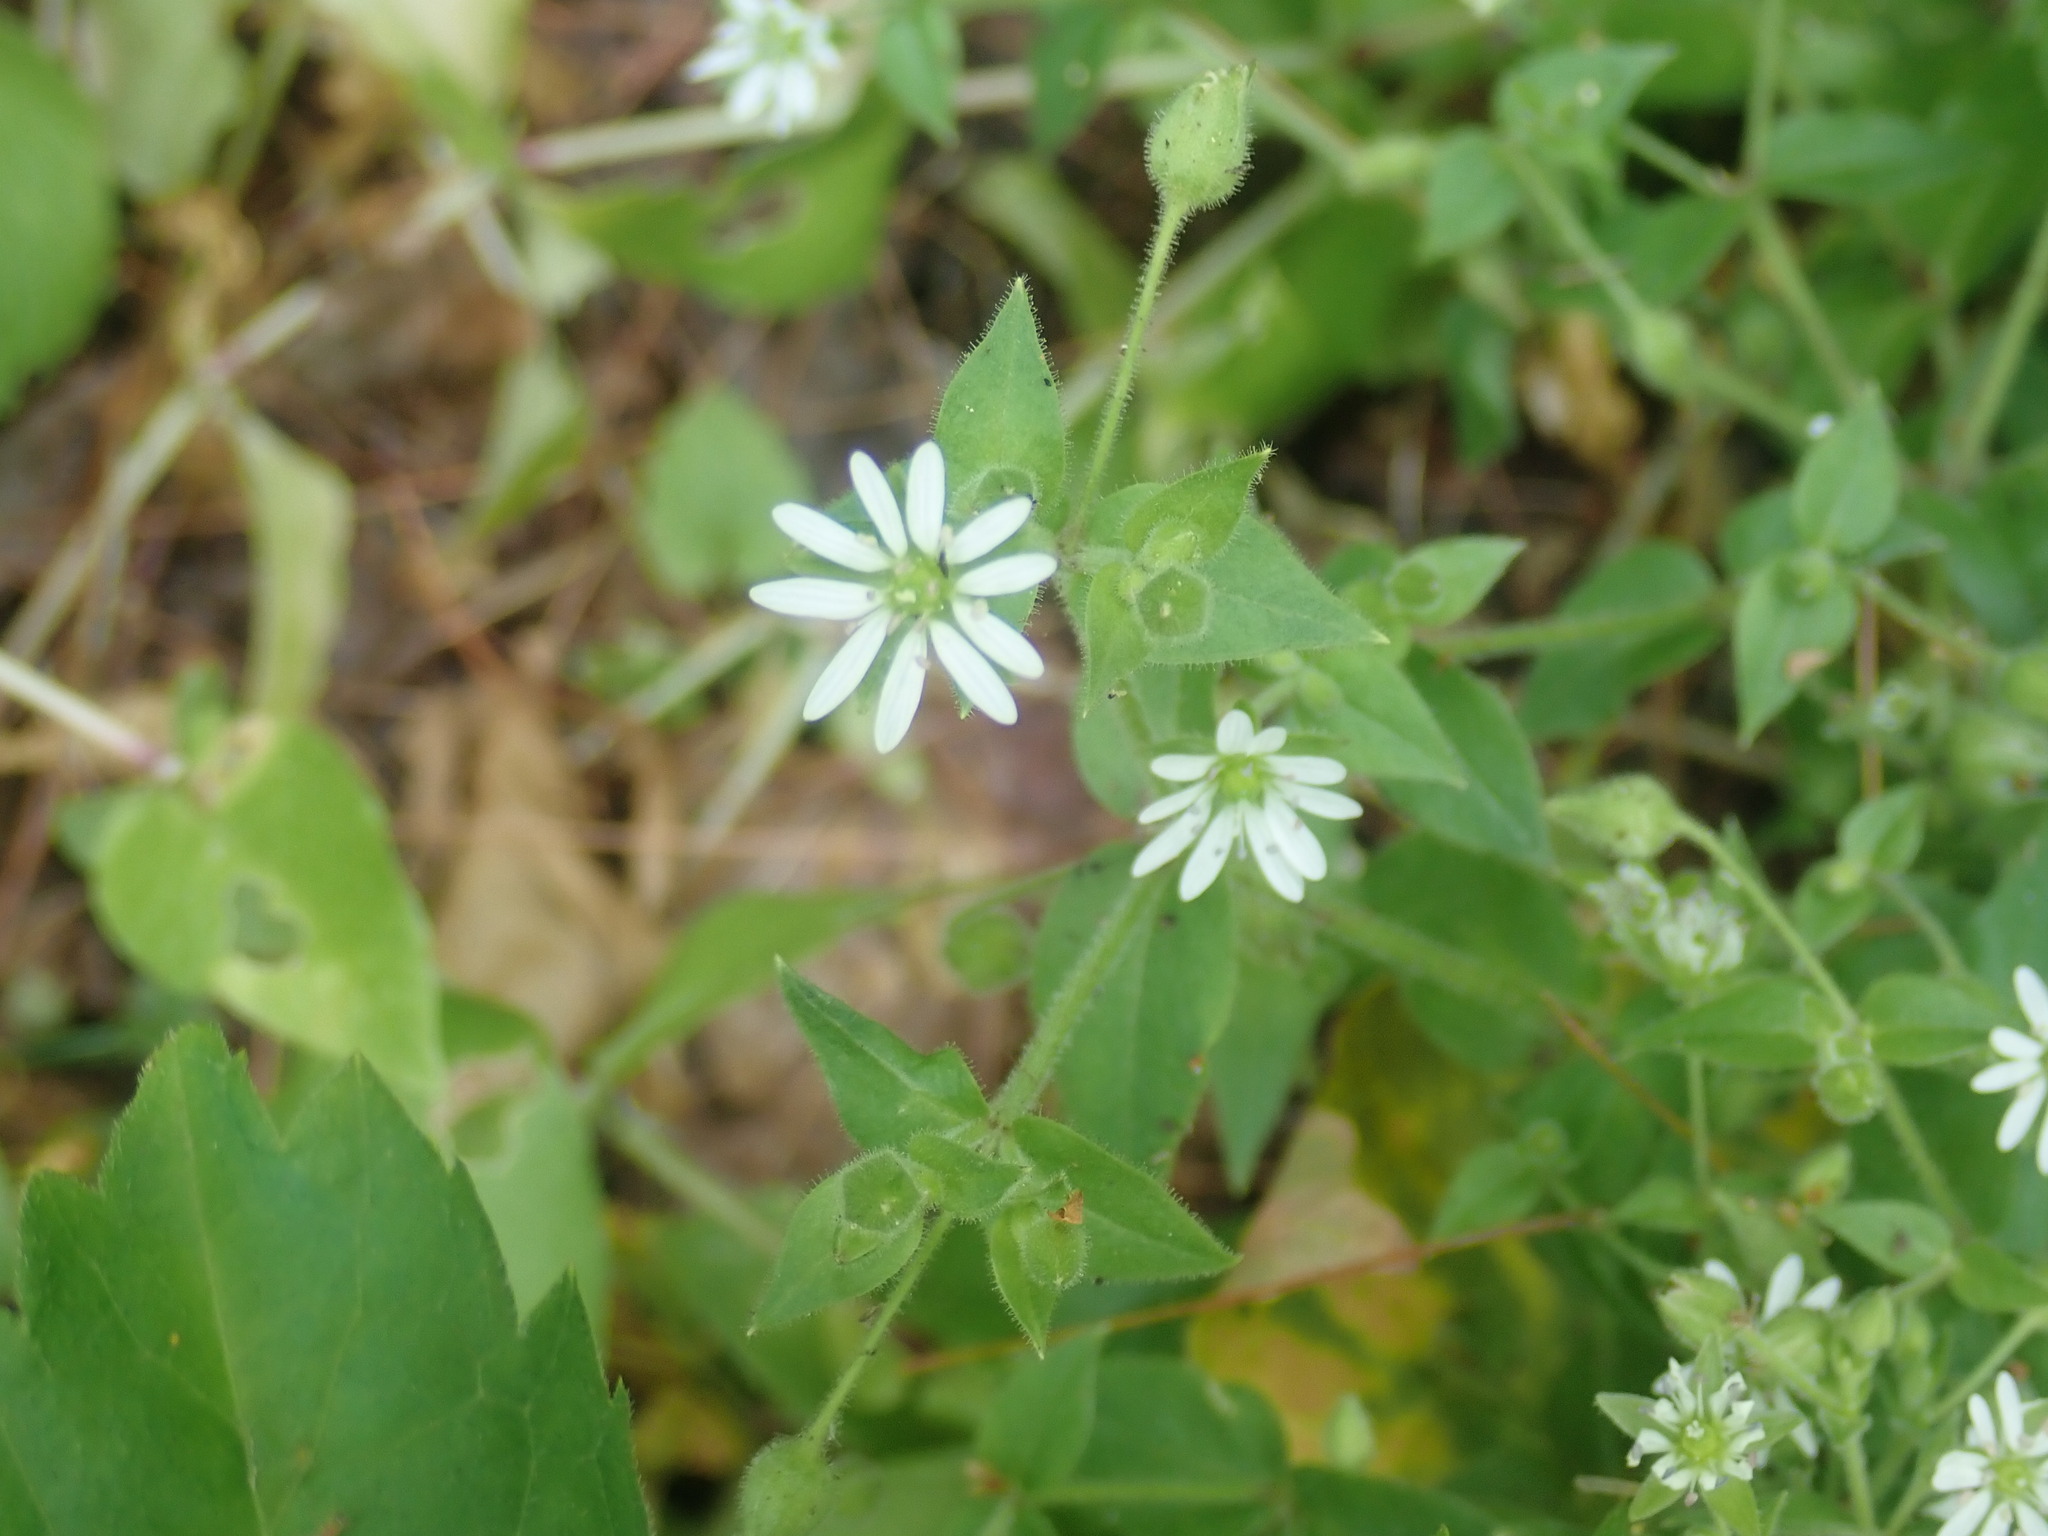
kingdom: Plantae
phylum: Tracheophyta
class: Magnoliopsida
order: Caryophyllales
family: Caryophyllaceae
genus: Stellaria
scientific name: Stellaria aquatica
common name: Water chickweed
